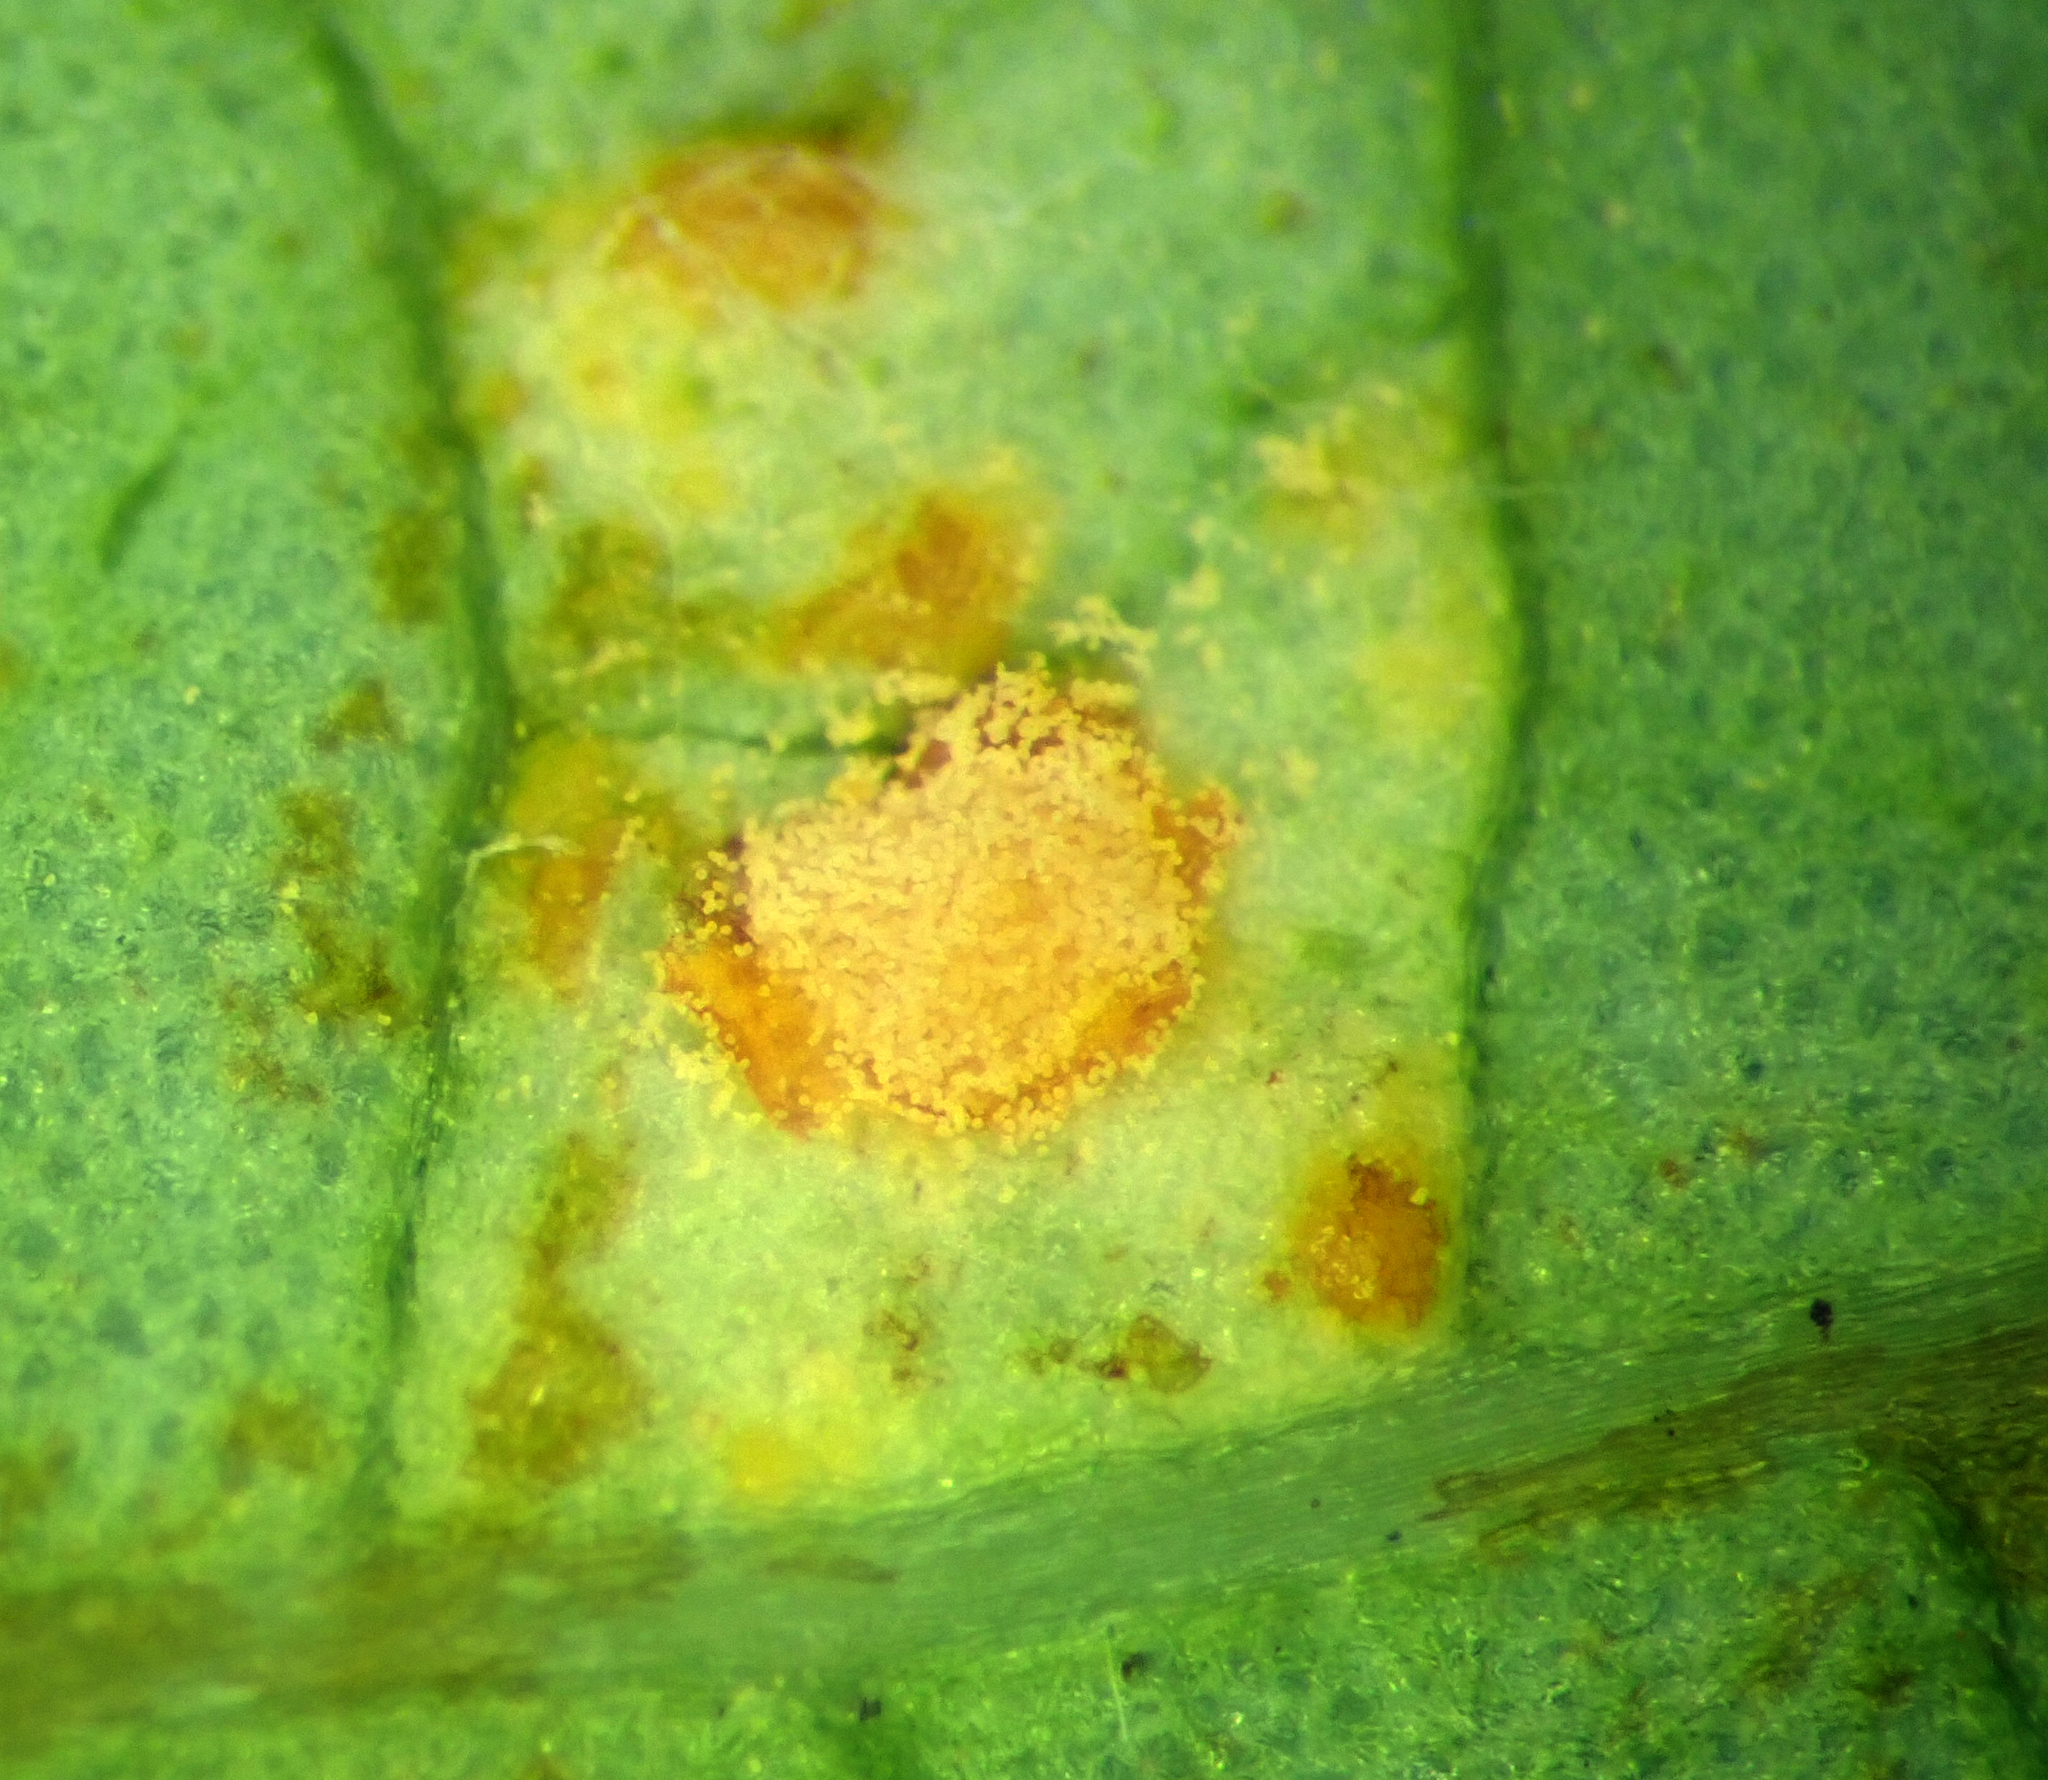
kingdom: Fungi
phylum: Basidiomycota
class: Pucciniomycetes
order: Pucciniales
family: Melampsoraceae
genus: Melampsora
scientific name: Melampsora hypericorum
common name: Tutsan rust
